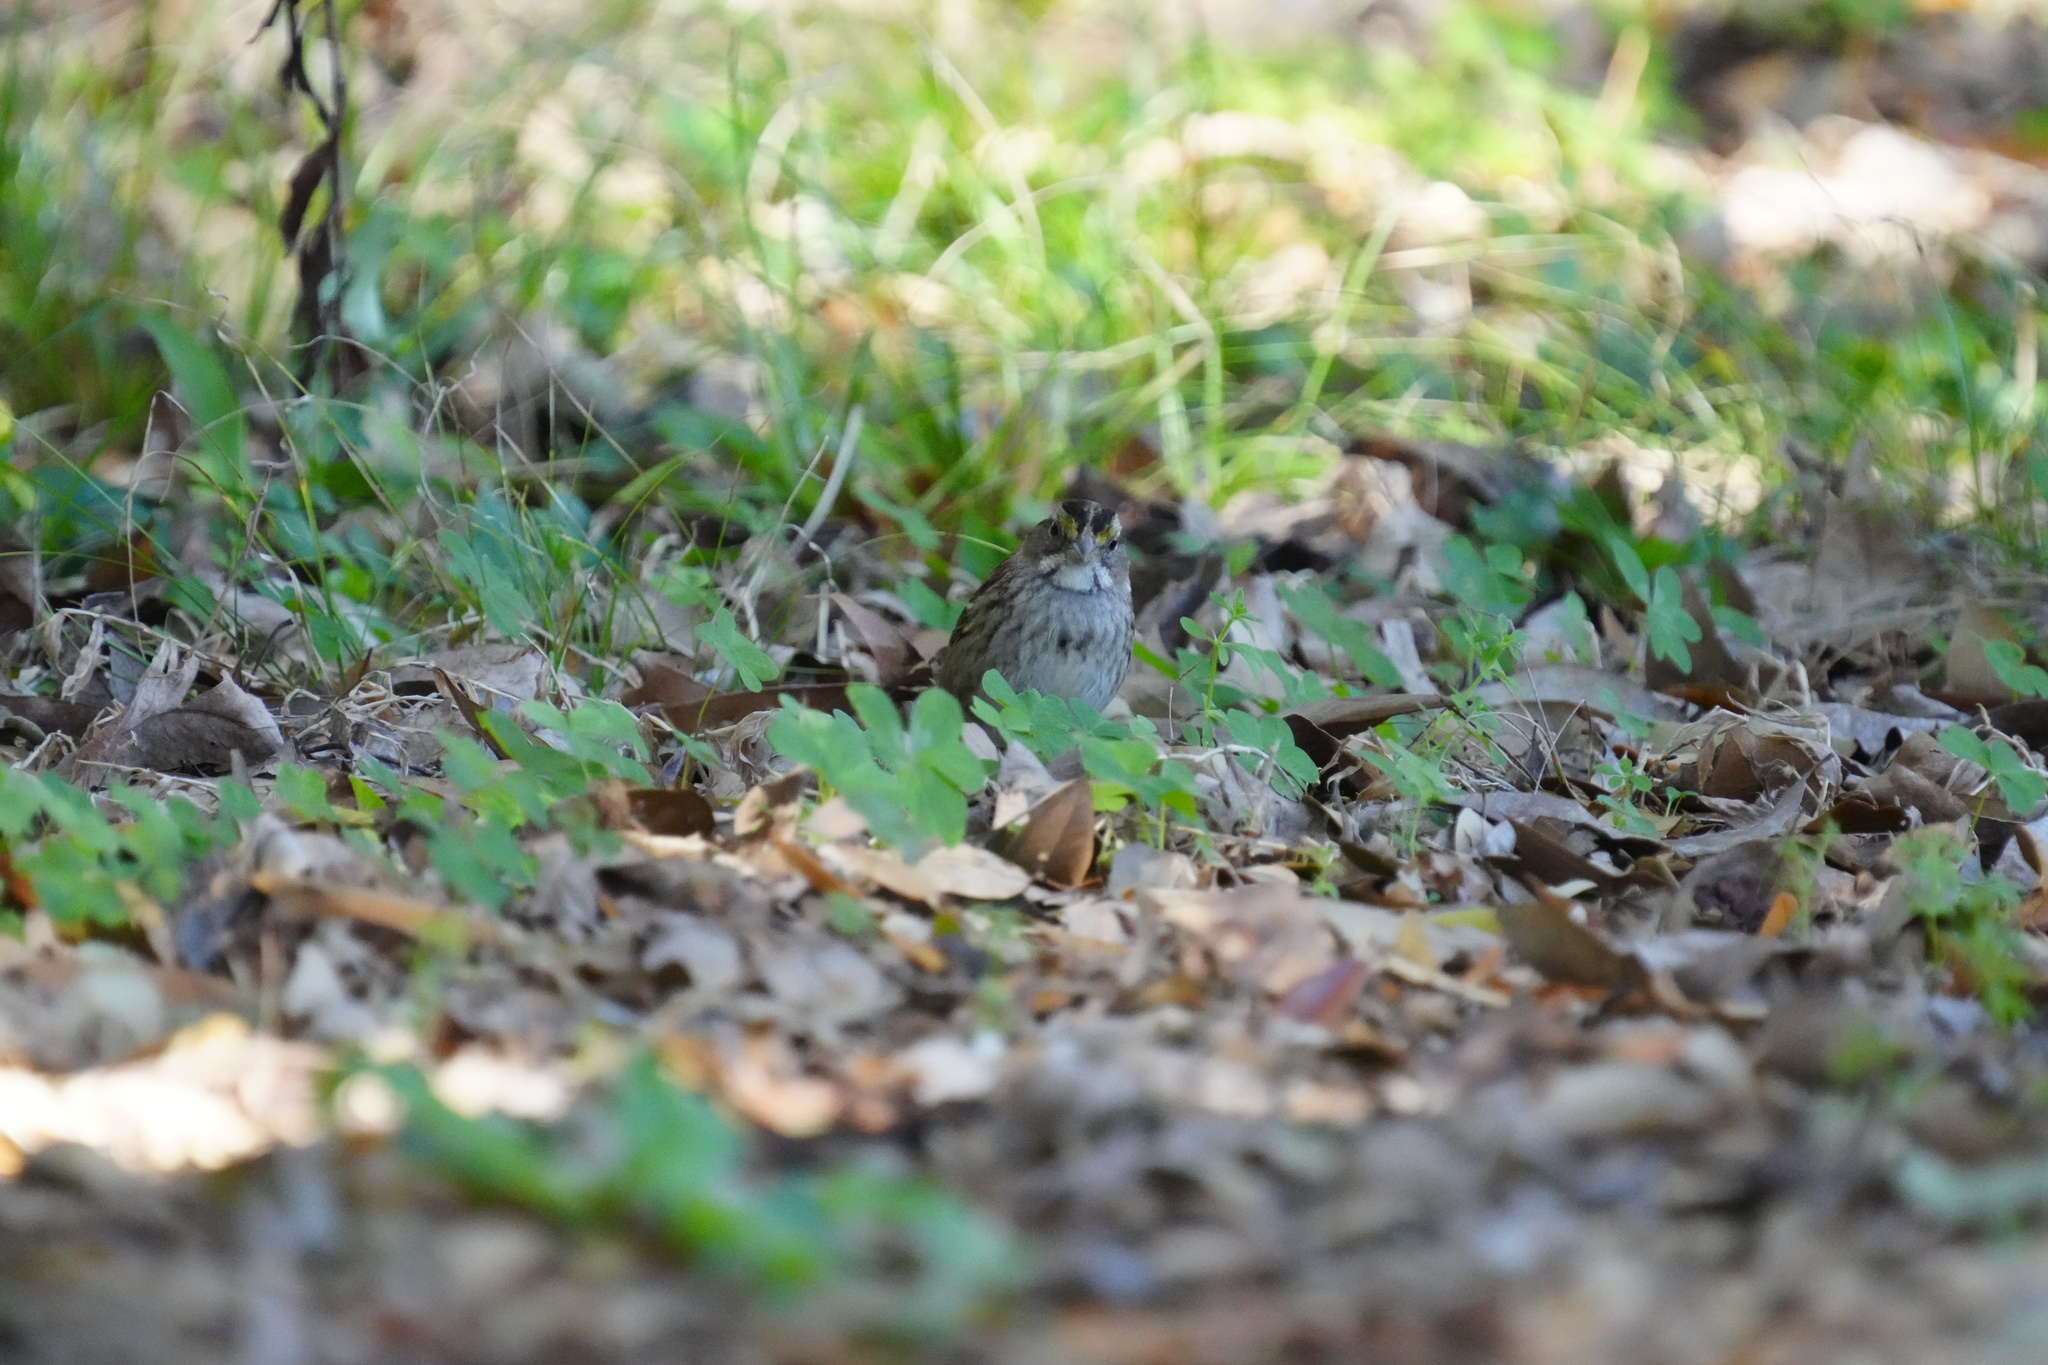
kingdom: Animalia
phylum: Chordata
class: Aves
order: Passeriformes
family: Passerellidae
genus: Zonotrichia
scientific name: Zonotrichia albicollis
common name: White-throated sparrow
